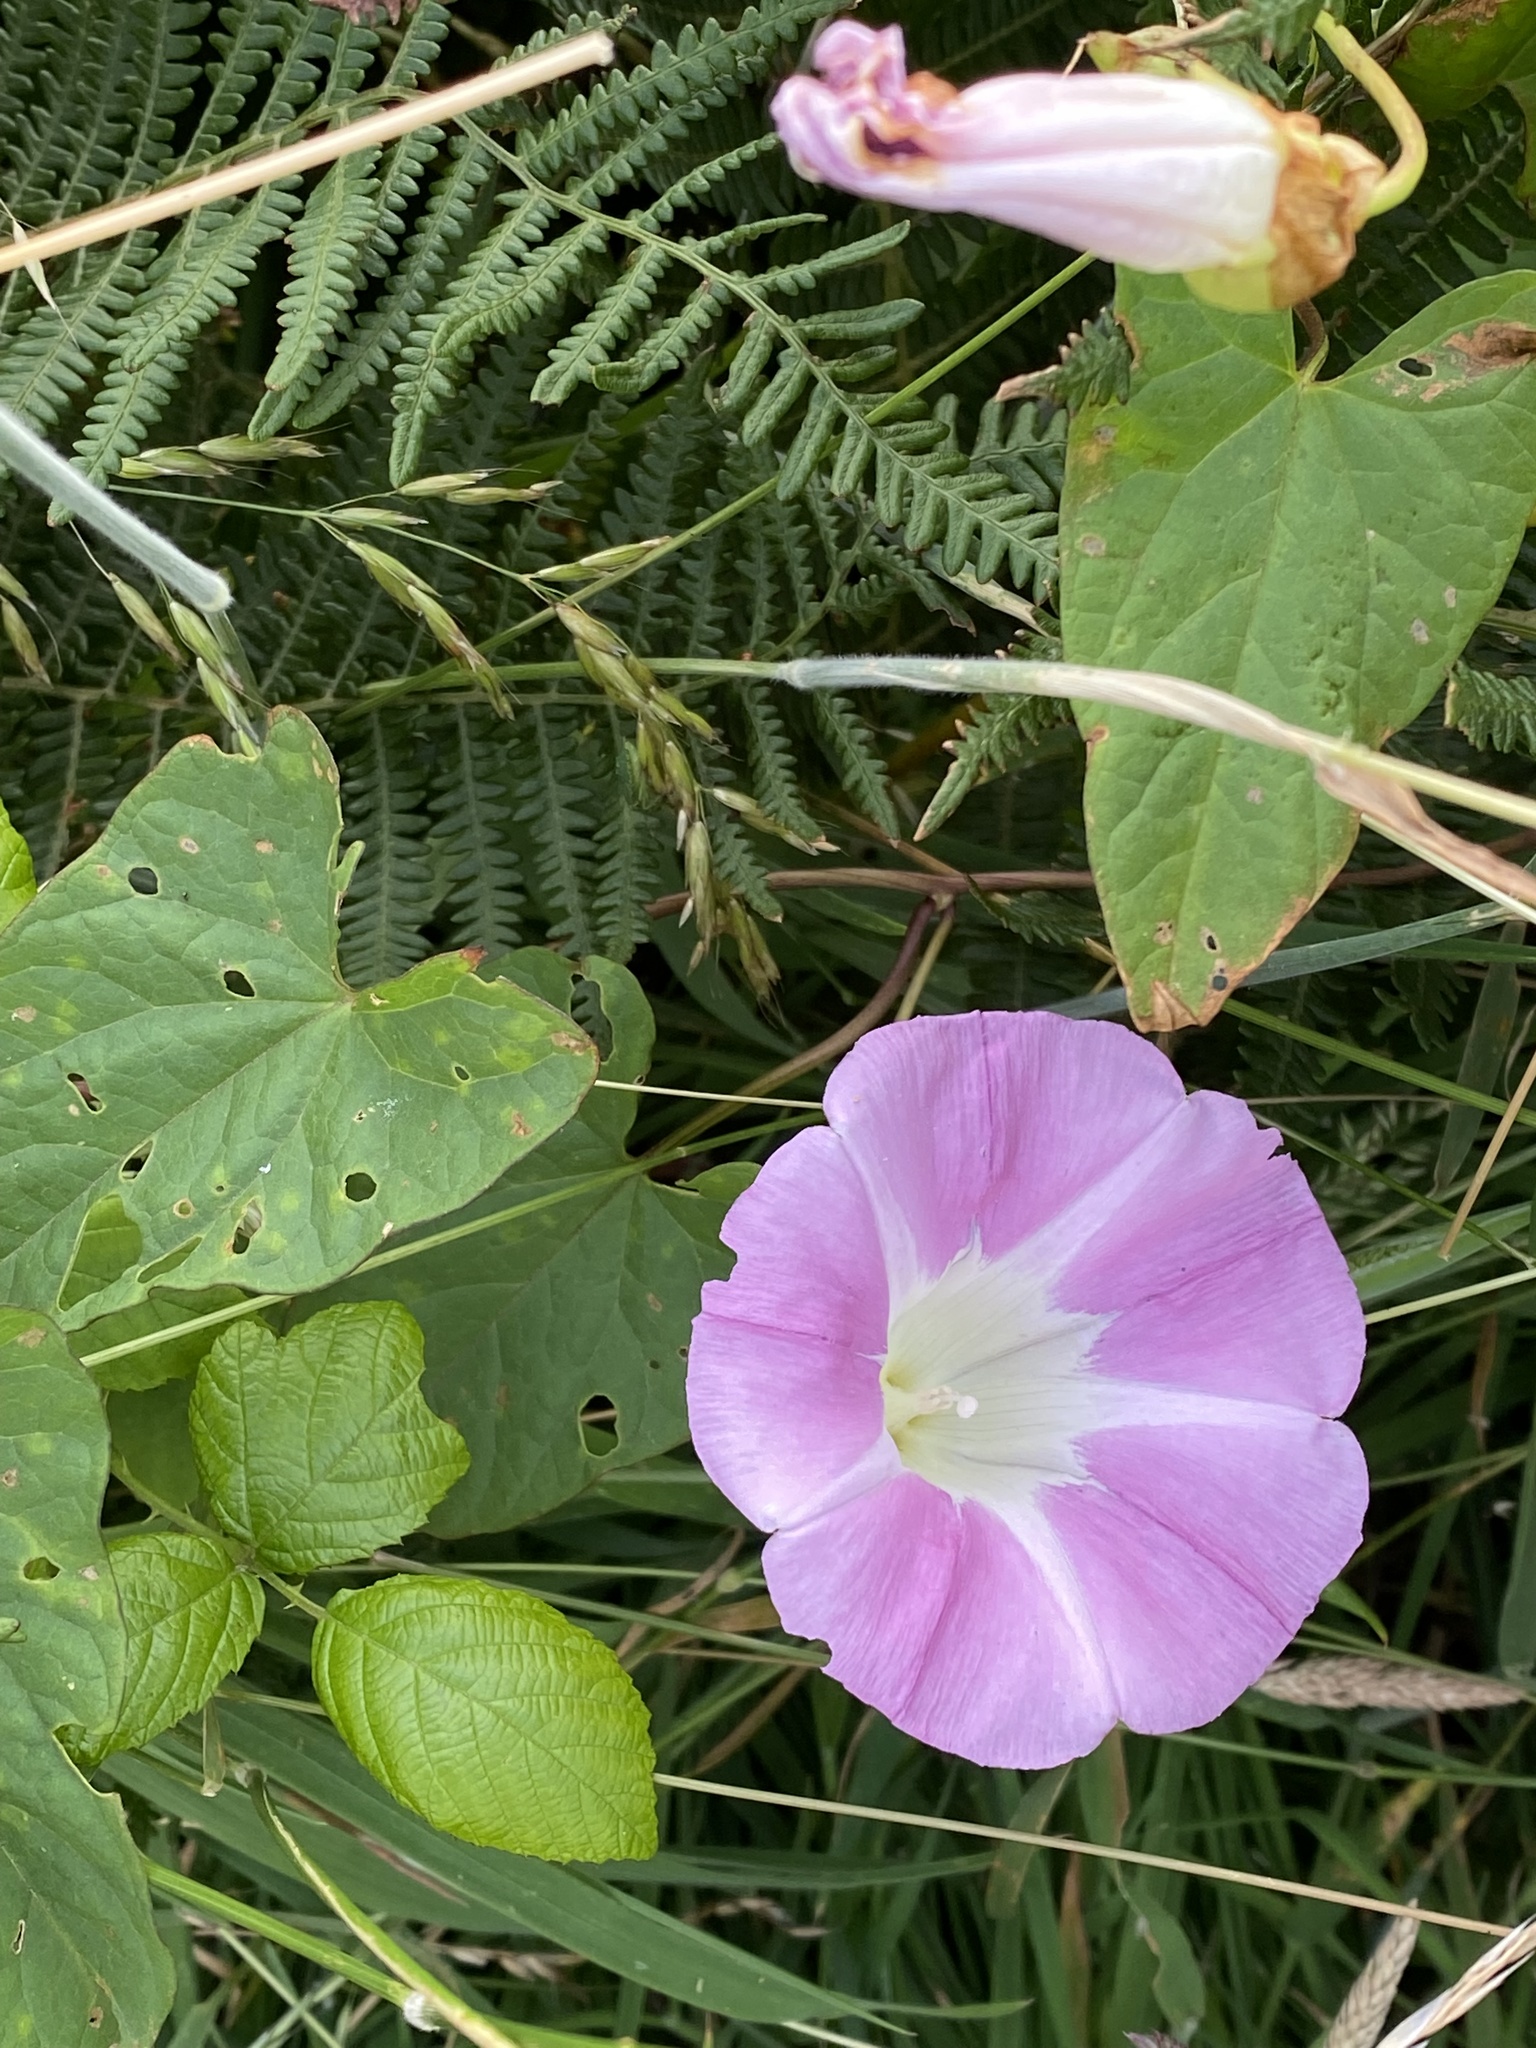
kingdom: Plantae
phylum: Tracheophyta
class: Magnoliopsida
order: Solanales
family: Convolvulaceae
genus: Calystegia
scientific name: Calystegia sepium
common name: Hedge bindweed
